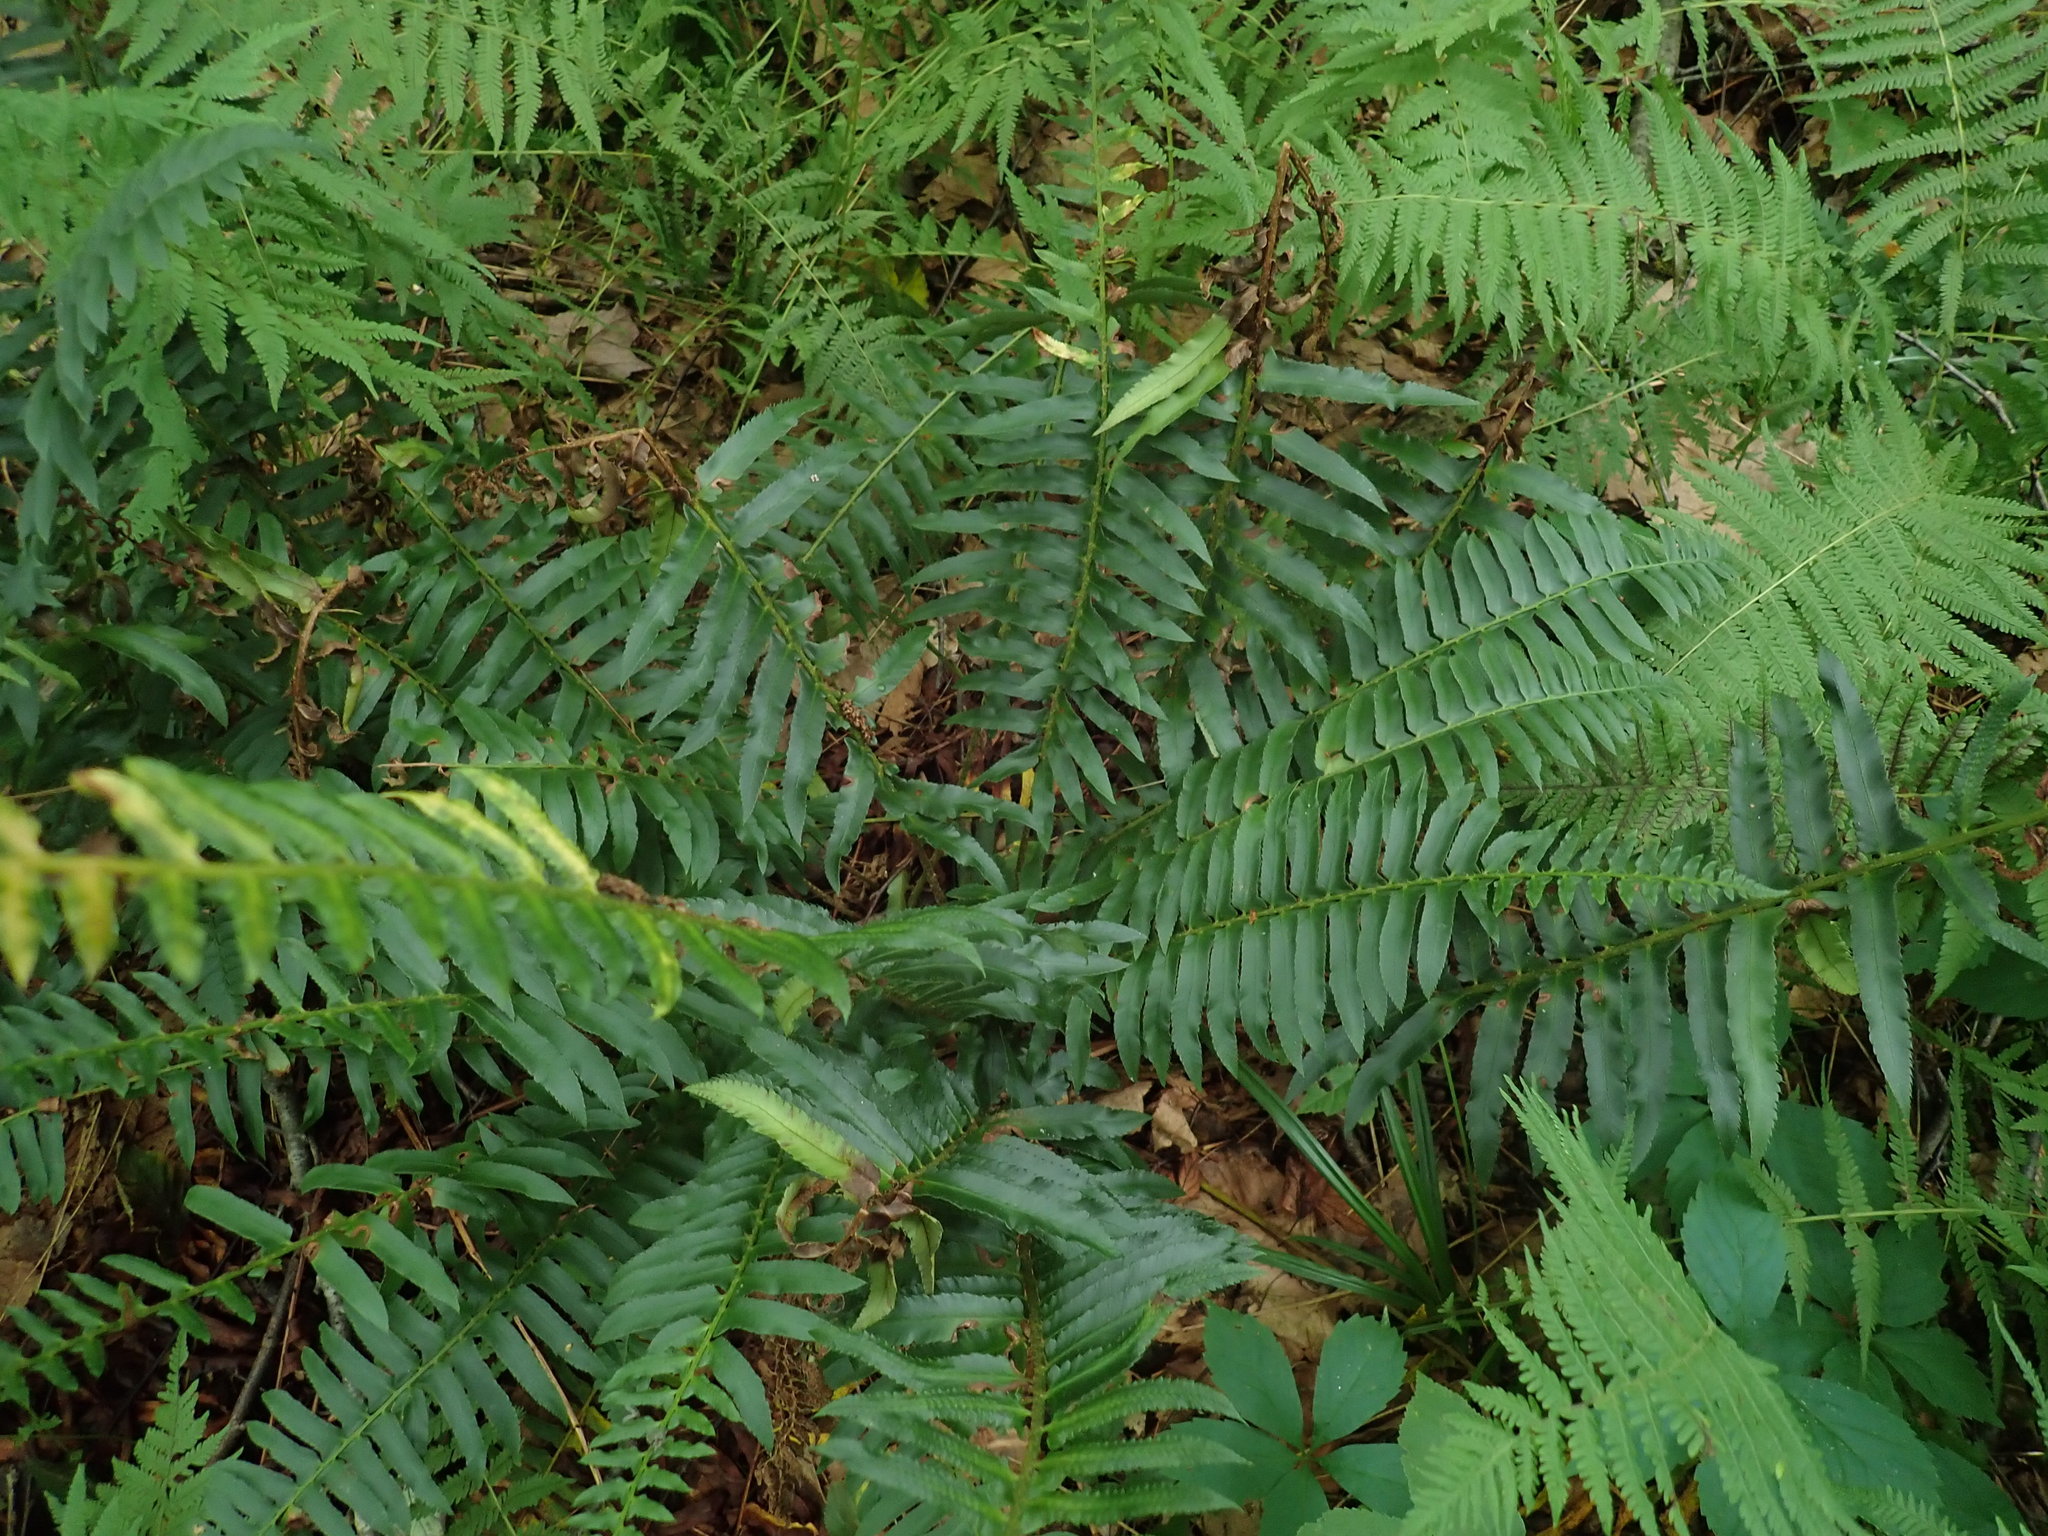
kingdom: Plantae
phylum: Tracheophyta
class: Polypodiopsida
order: Polypodiales
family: Dryopteridaceae
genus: Polystichum
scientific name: Polystichum acrostichoides
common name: Christmas fern
